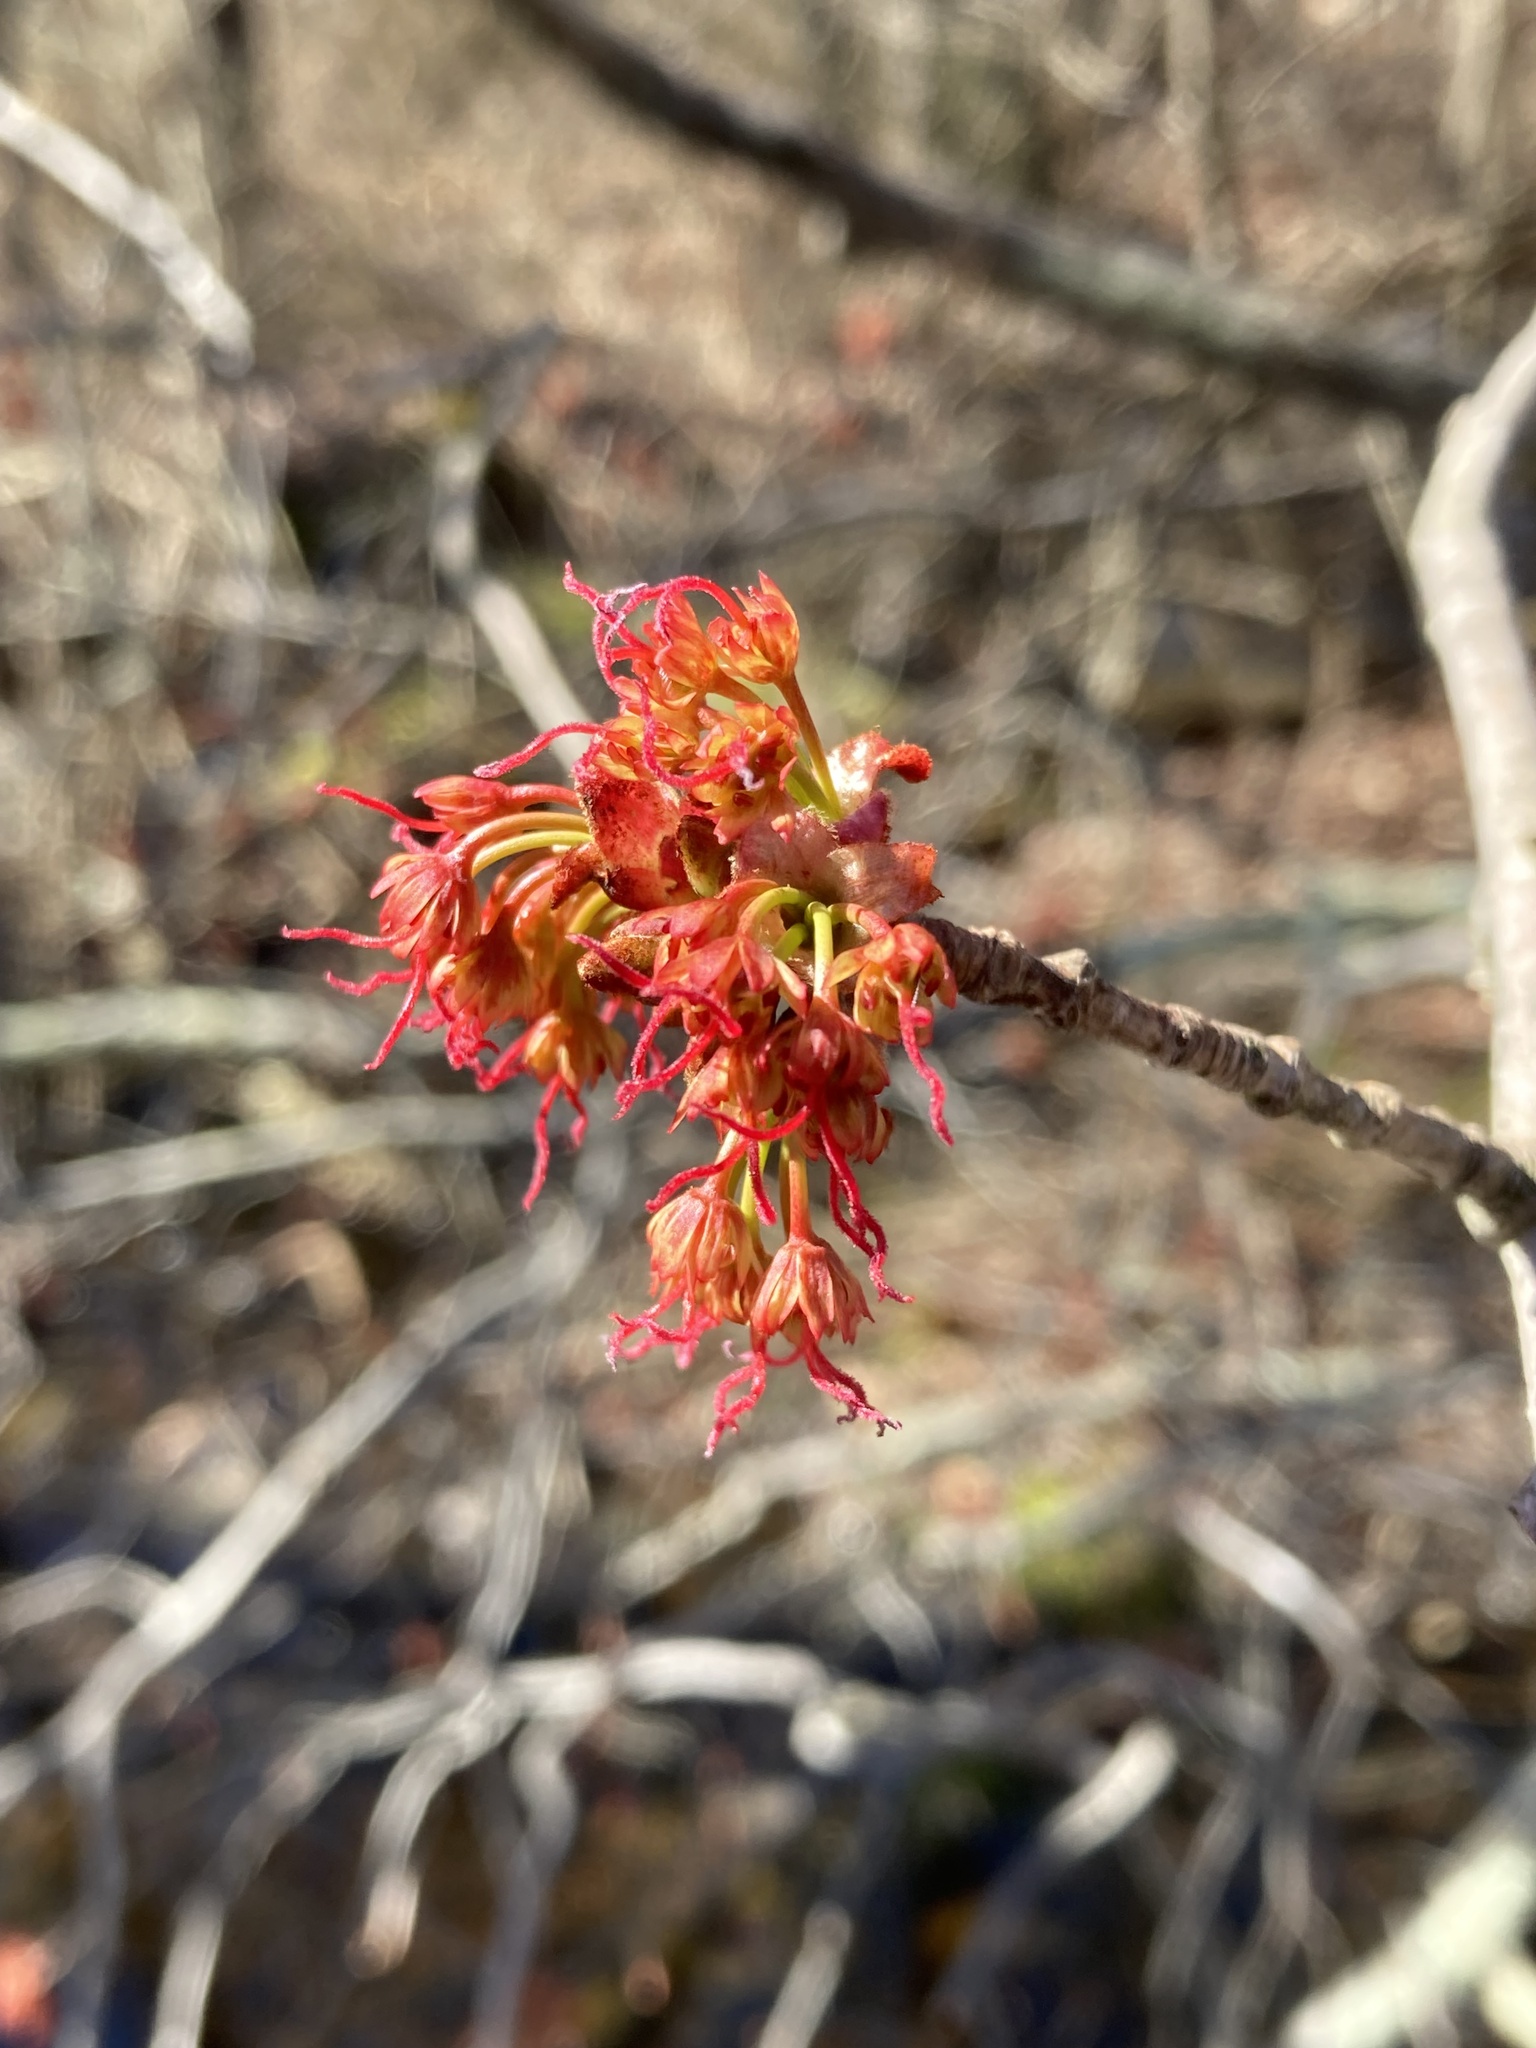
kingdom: Plantae
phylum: Tracheophyta
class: Magnoliopsida
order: Sapindales
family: Sapindaceae
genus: Acer
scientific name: Acer rubrum
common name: Red maple
